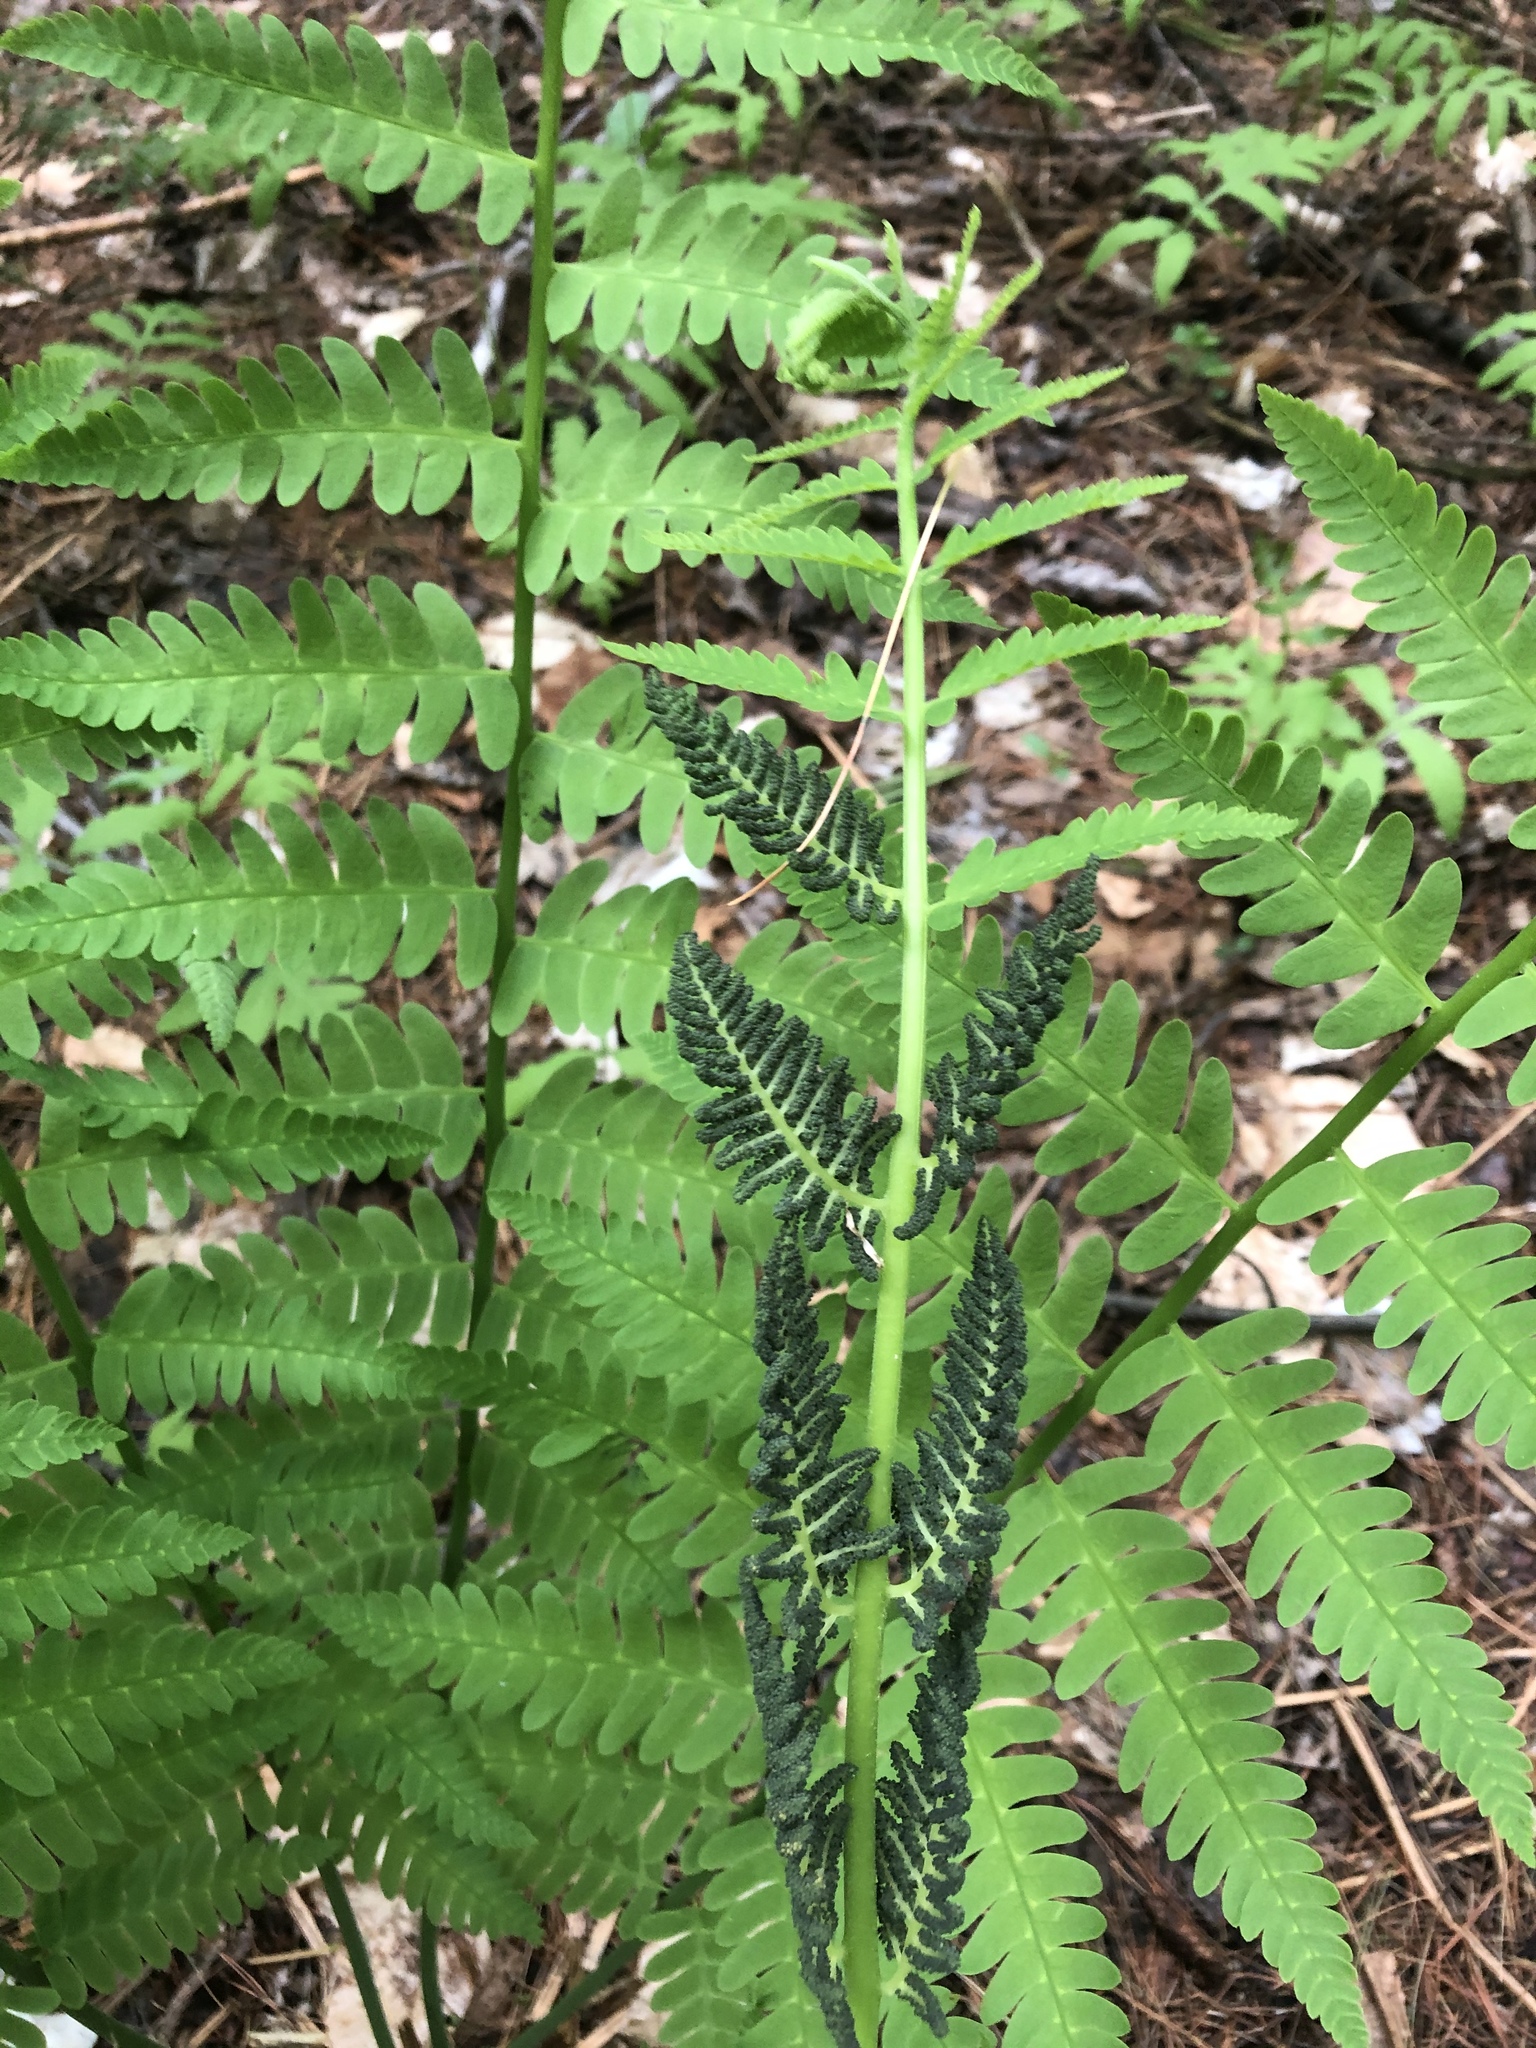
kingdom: Plantae
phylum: Tracheophyta
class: Polypodiopsida
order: Osmundales
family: Osmundaceae
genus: Claytosmunda
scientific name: Claytosmunda claytoniana
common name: Clayton's fern
